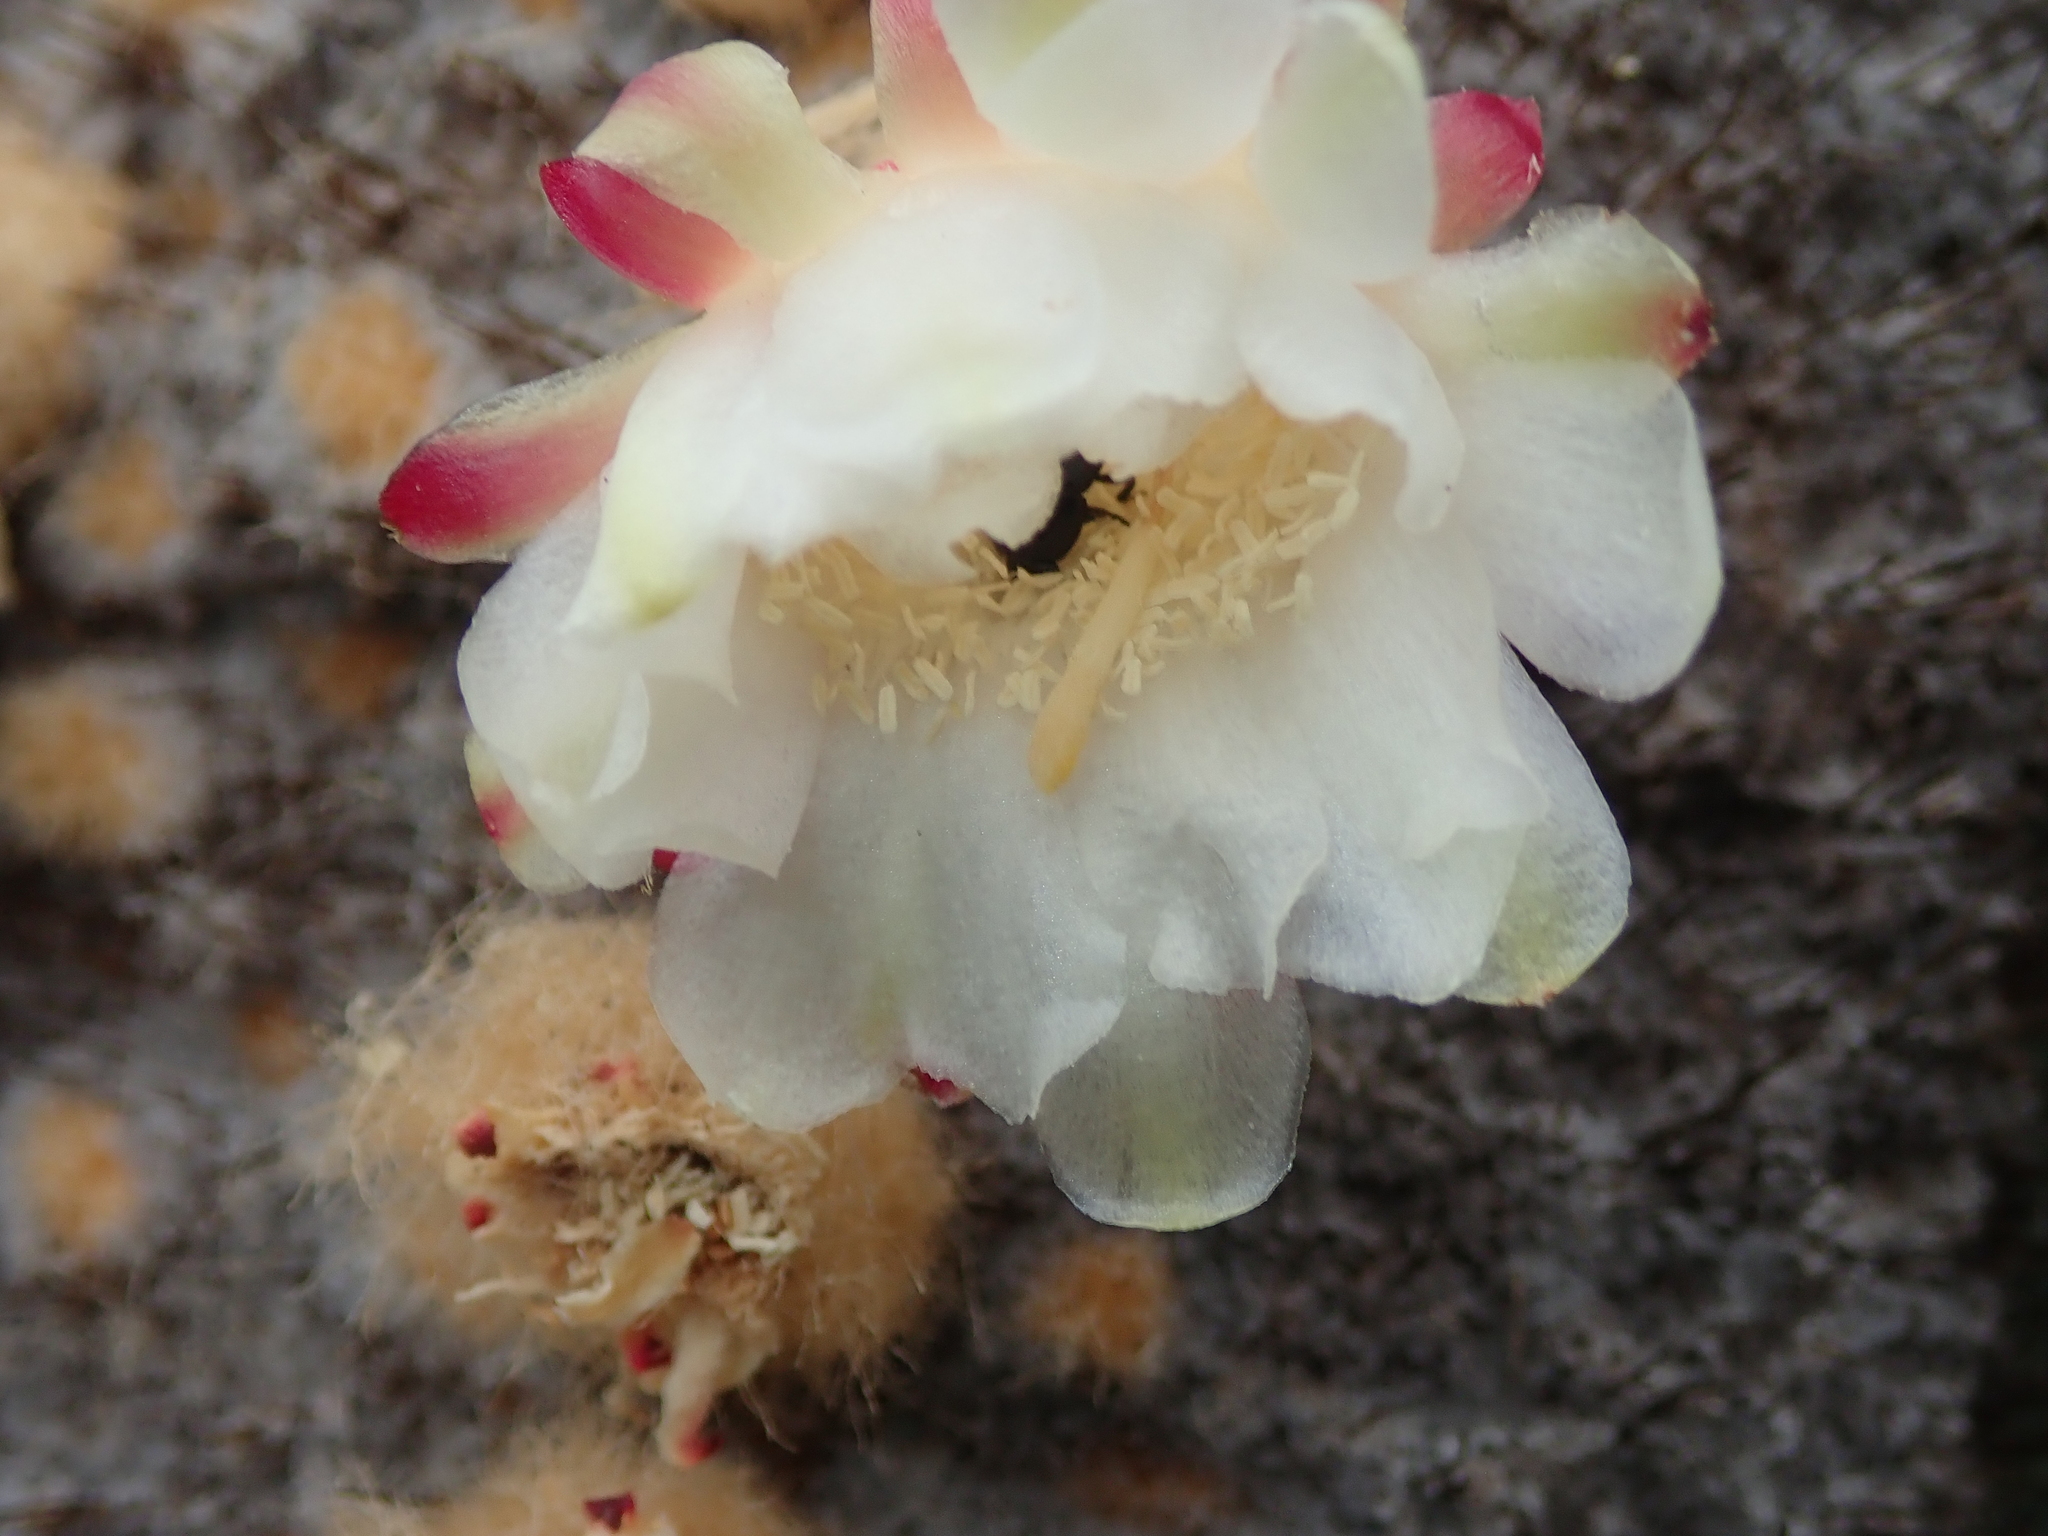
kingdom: Plantae
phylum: Tracheophyta
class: Magnoliopsida
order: Caryophyllales
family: Cactaceae
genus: Coleocephalocereus
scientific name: Coleocephalocereus
